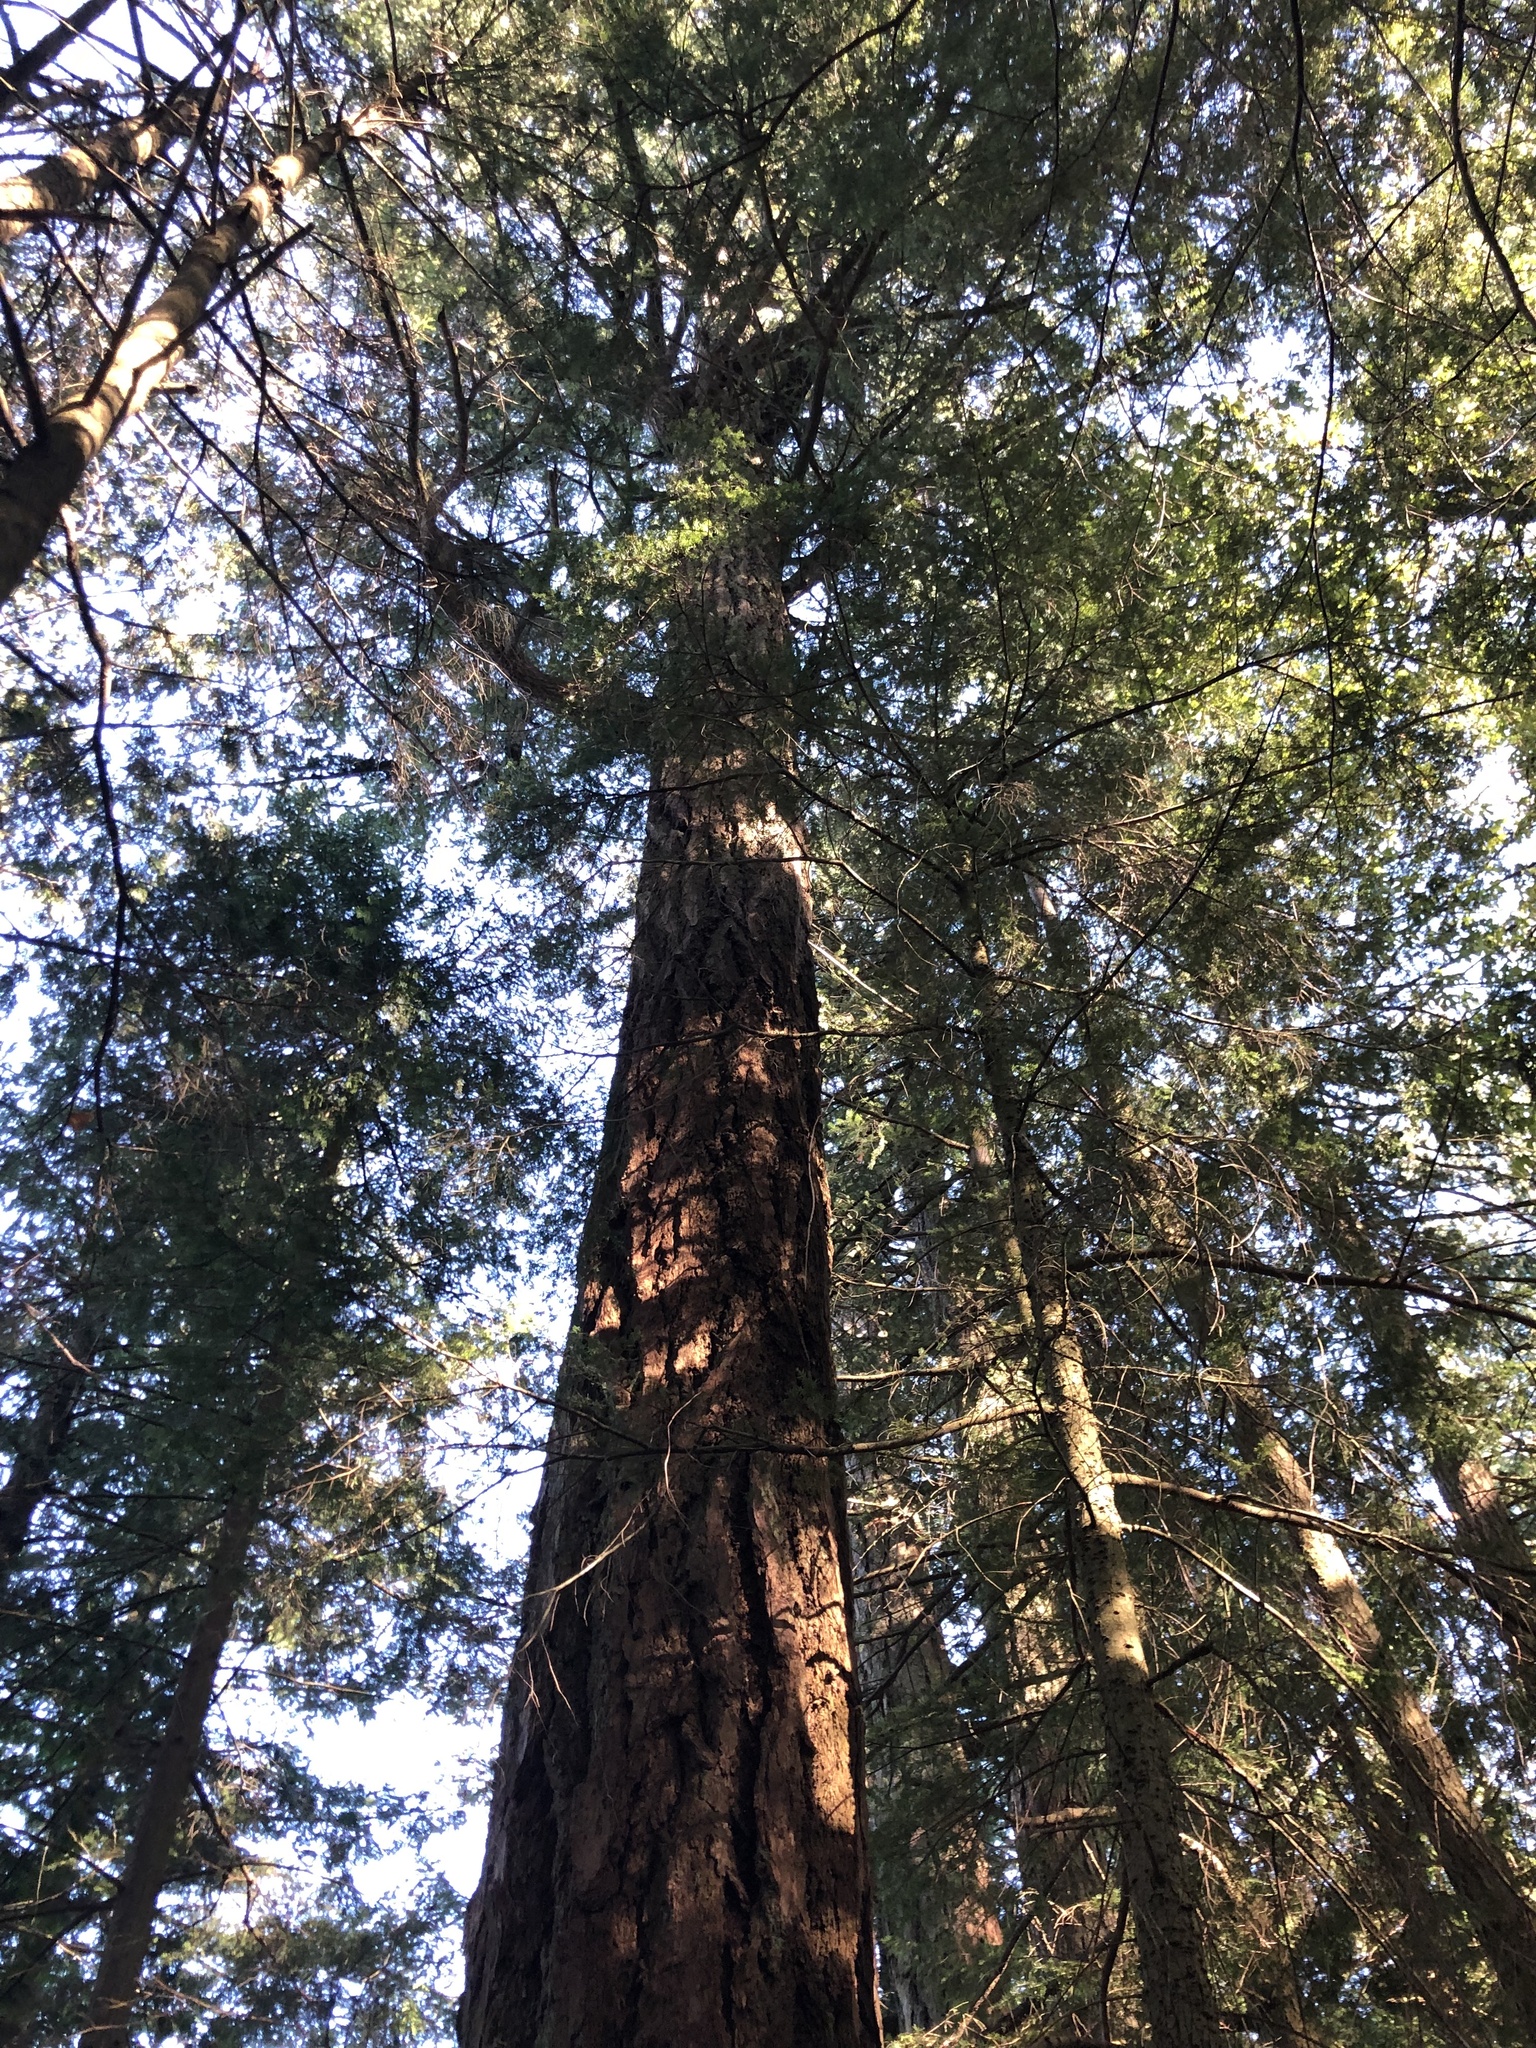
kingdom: Plantae
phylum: Tracheophyta
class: Pinopsida
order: Pinales
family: Pinaceae
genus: Pseudotsuga
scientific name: Pseudotsuga menziesii
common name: Douglas fir
